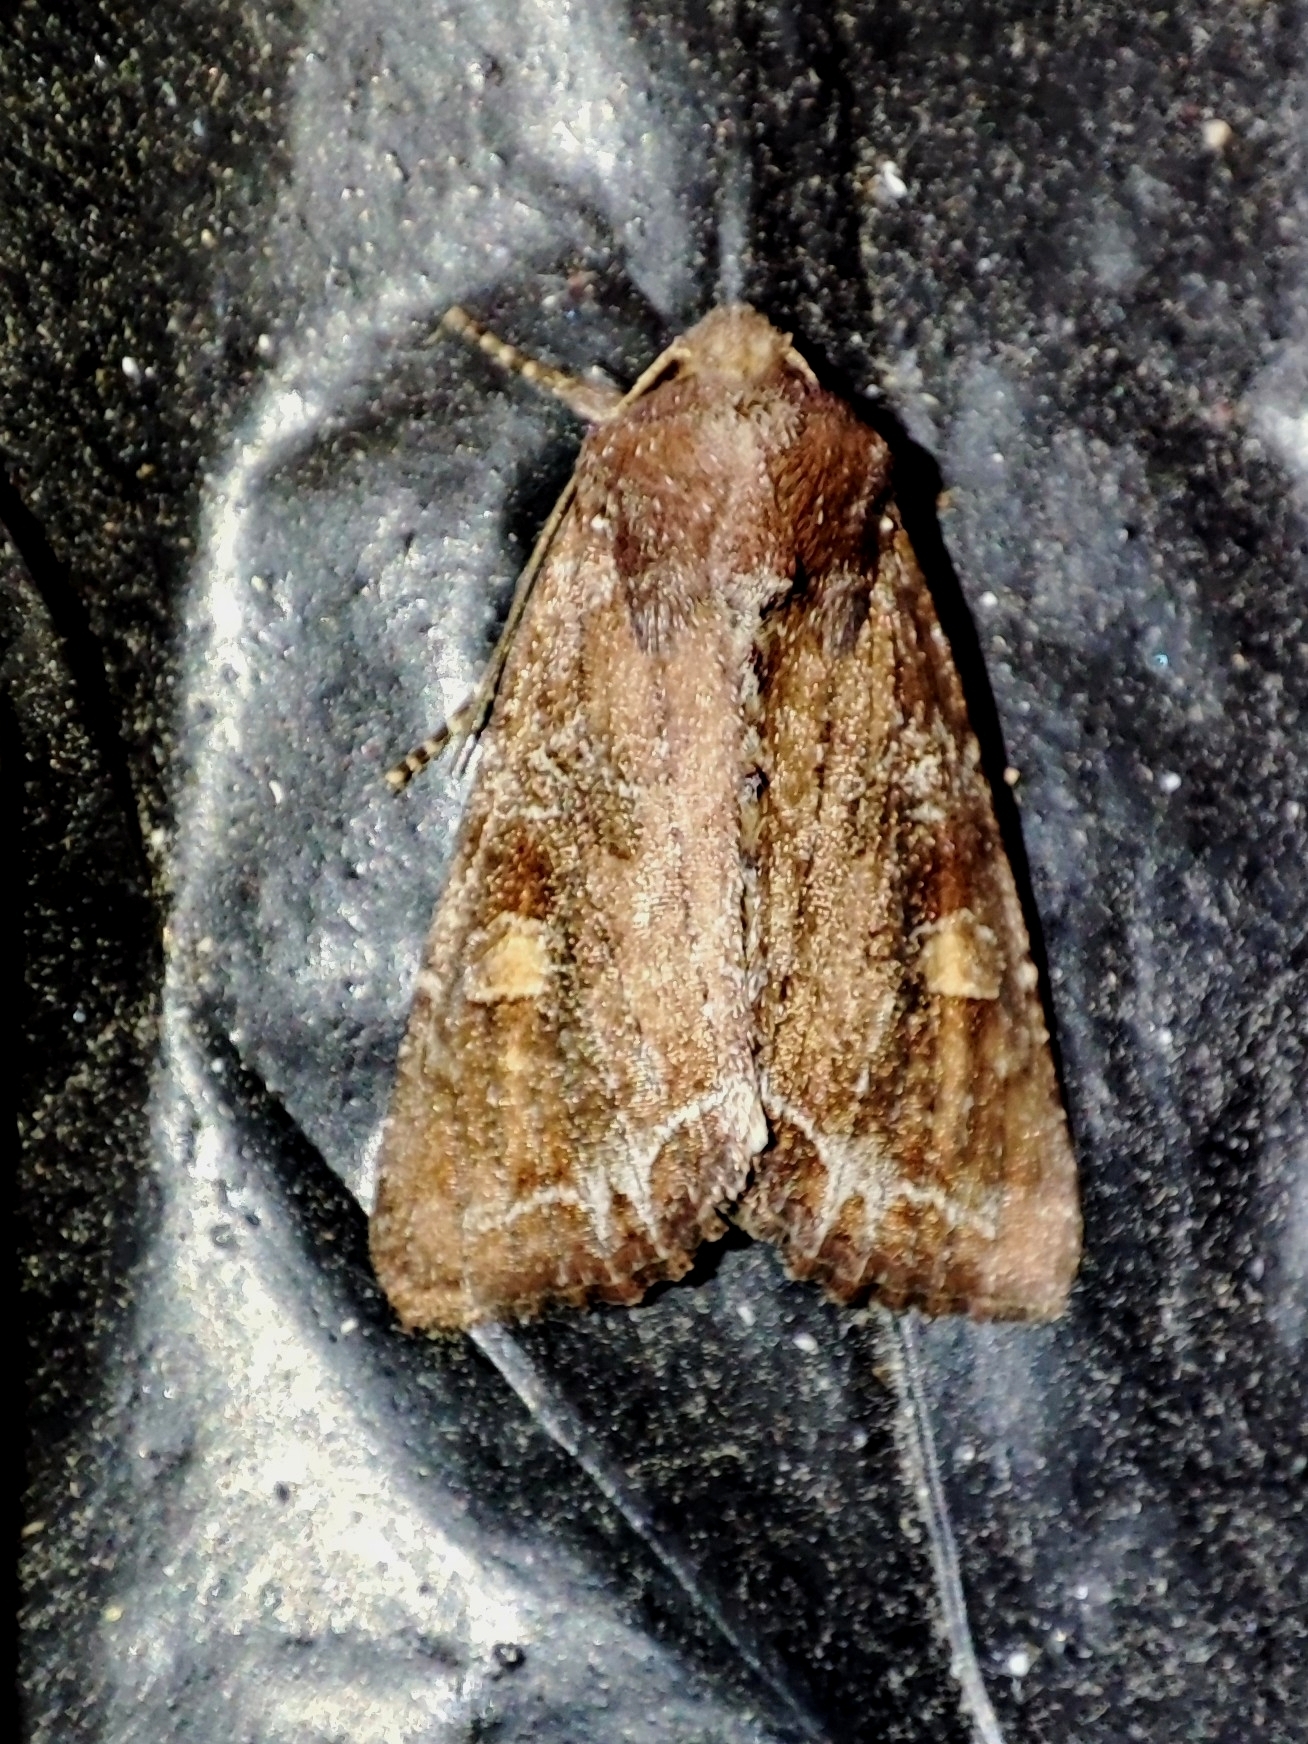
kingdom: Animalia
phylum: Arthropoda
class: Insecta
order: Lepidoptera
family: Noctuidae
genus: Lacanobia
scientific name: Lacanobia oleracea
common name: Bright-line brown-eye
